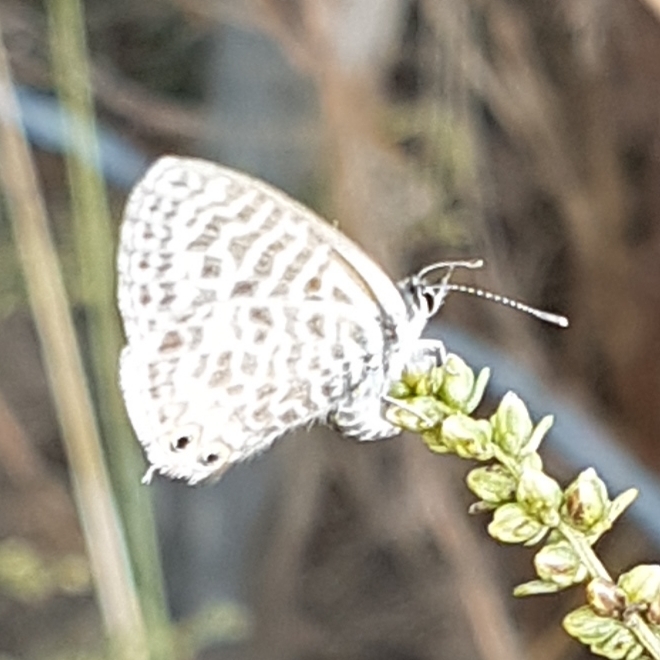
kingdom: Animalia
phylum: Arthropoda
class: Insecta
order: Lepidoptera
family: Lycaenidae
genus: Leptotes
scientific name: Leptotes pirithous
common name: Lang's short-tailed blue
